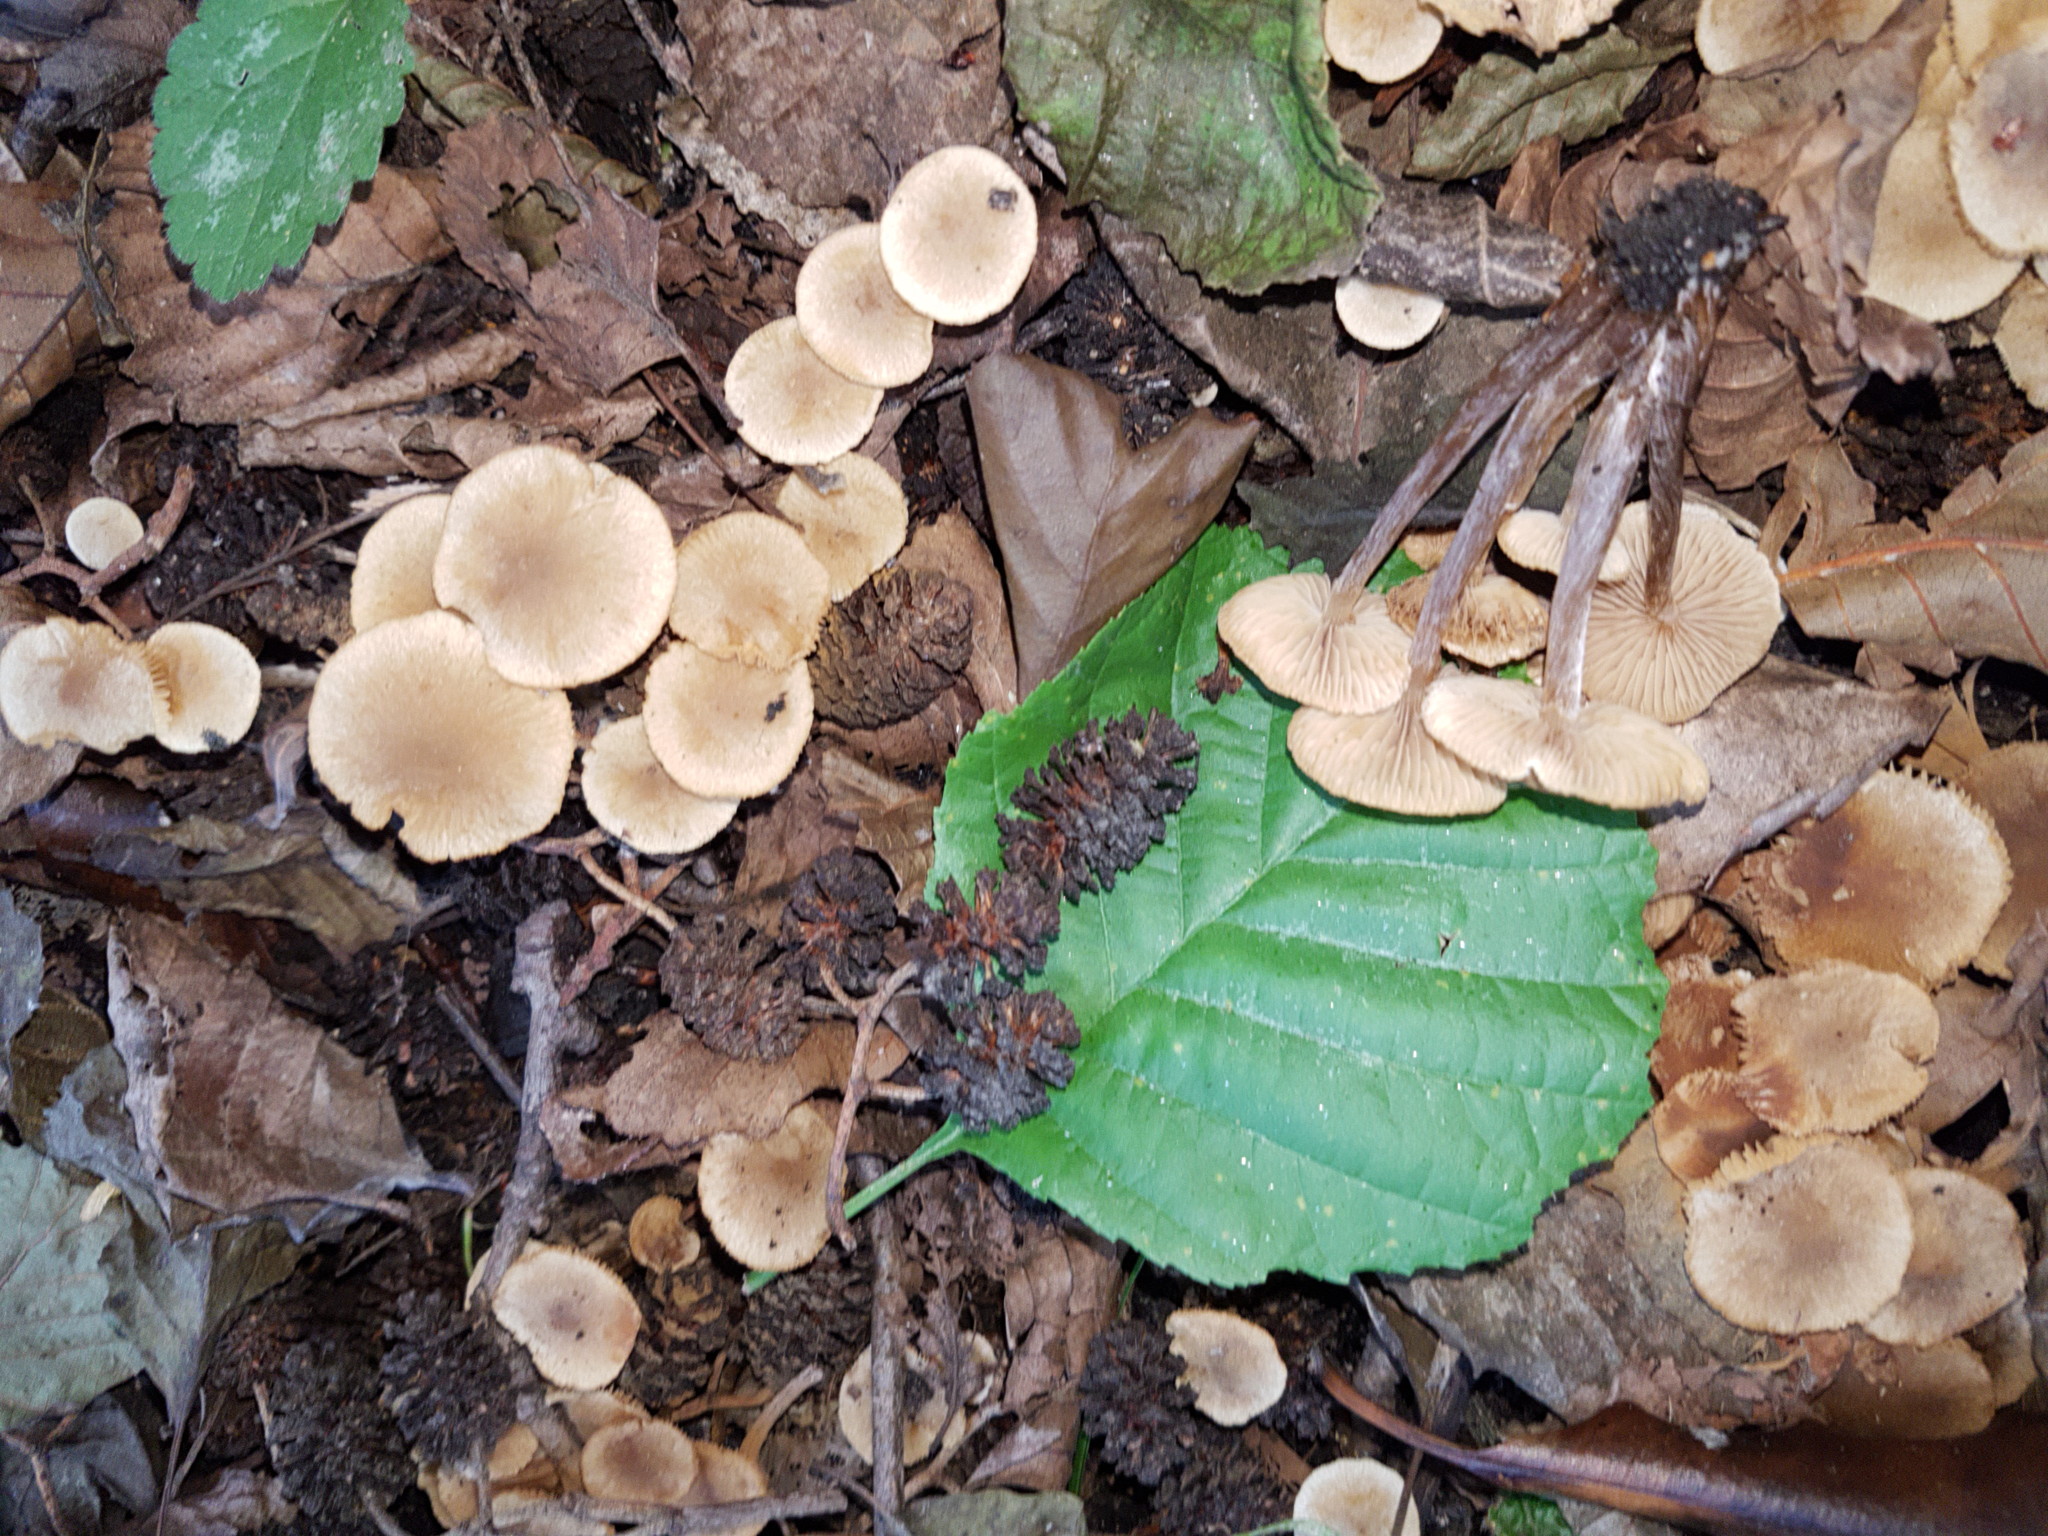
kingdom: Fungi
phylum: Basidiomycota
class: Agaricomycetes
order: Agaricales
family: Hymenogastraceae
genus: Naucoria
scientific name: Naucoria escharioides
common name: Ochre aldercap
